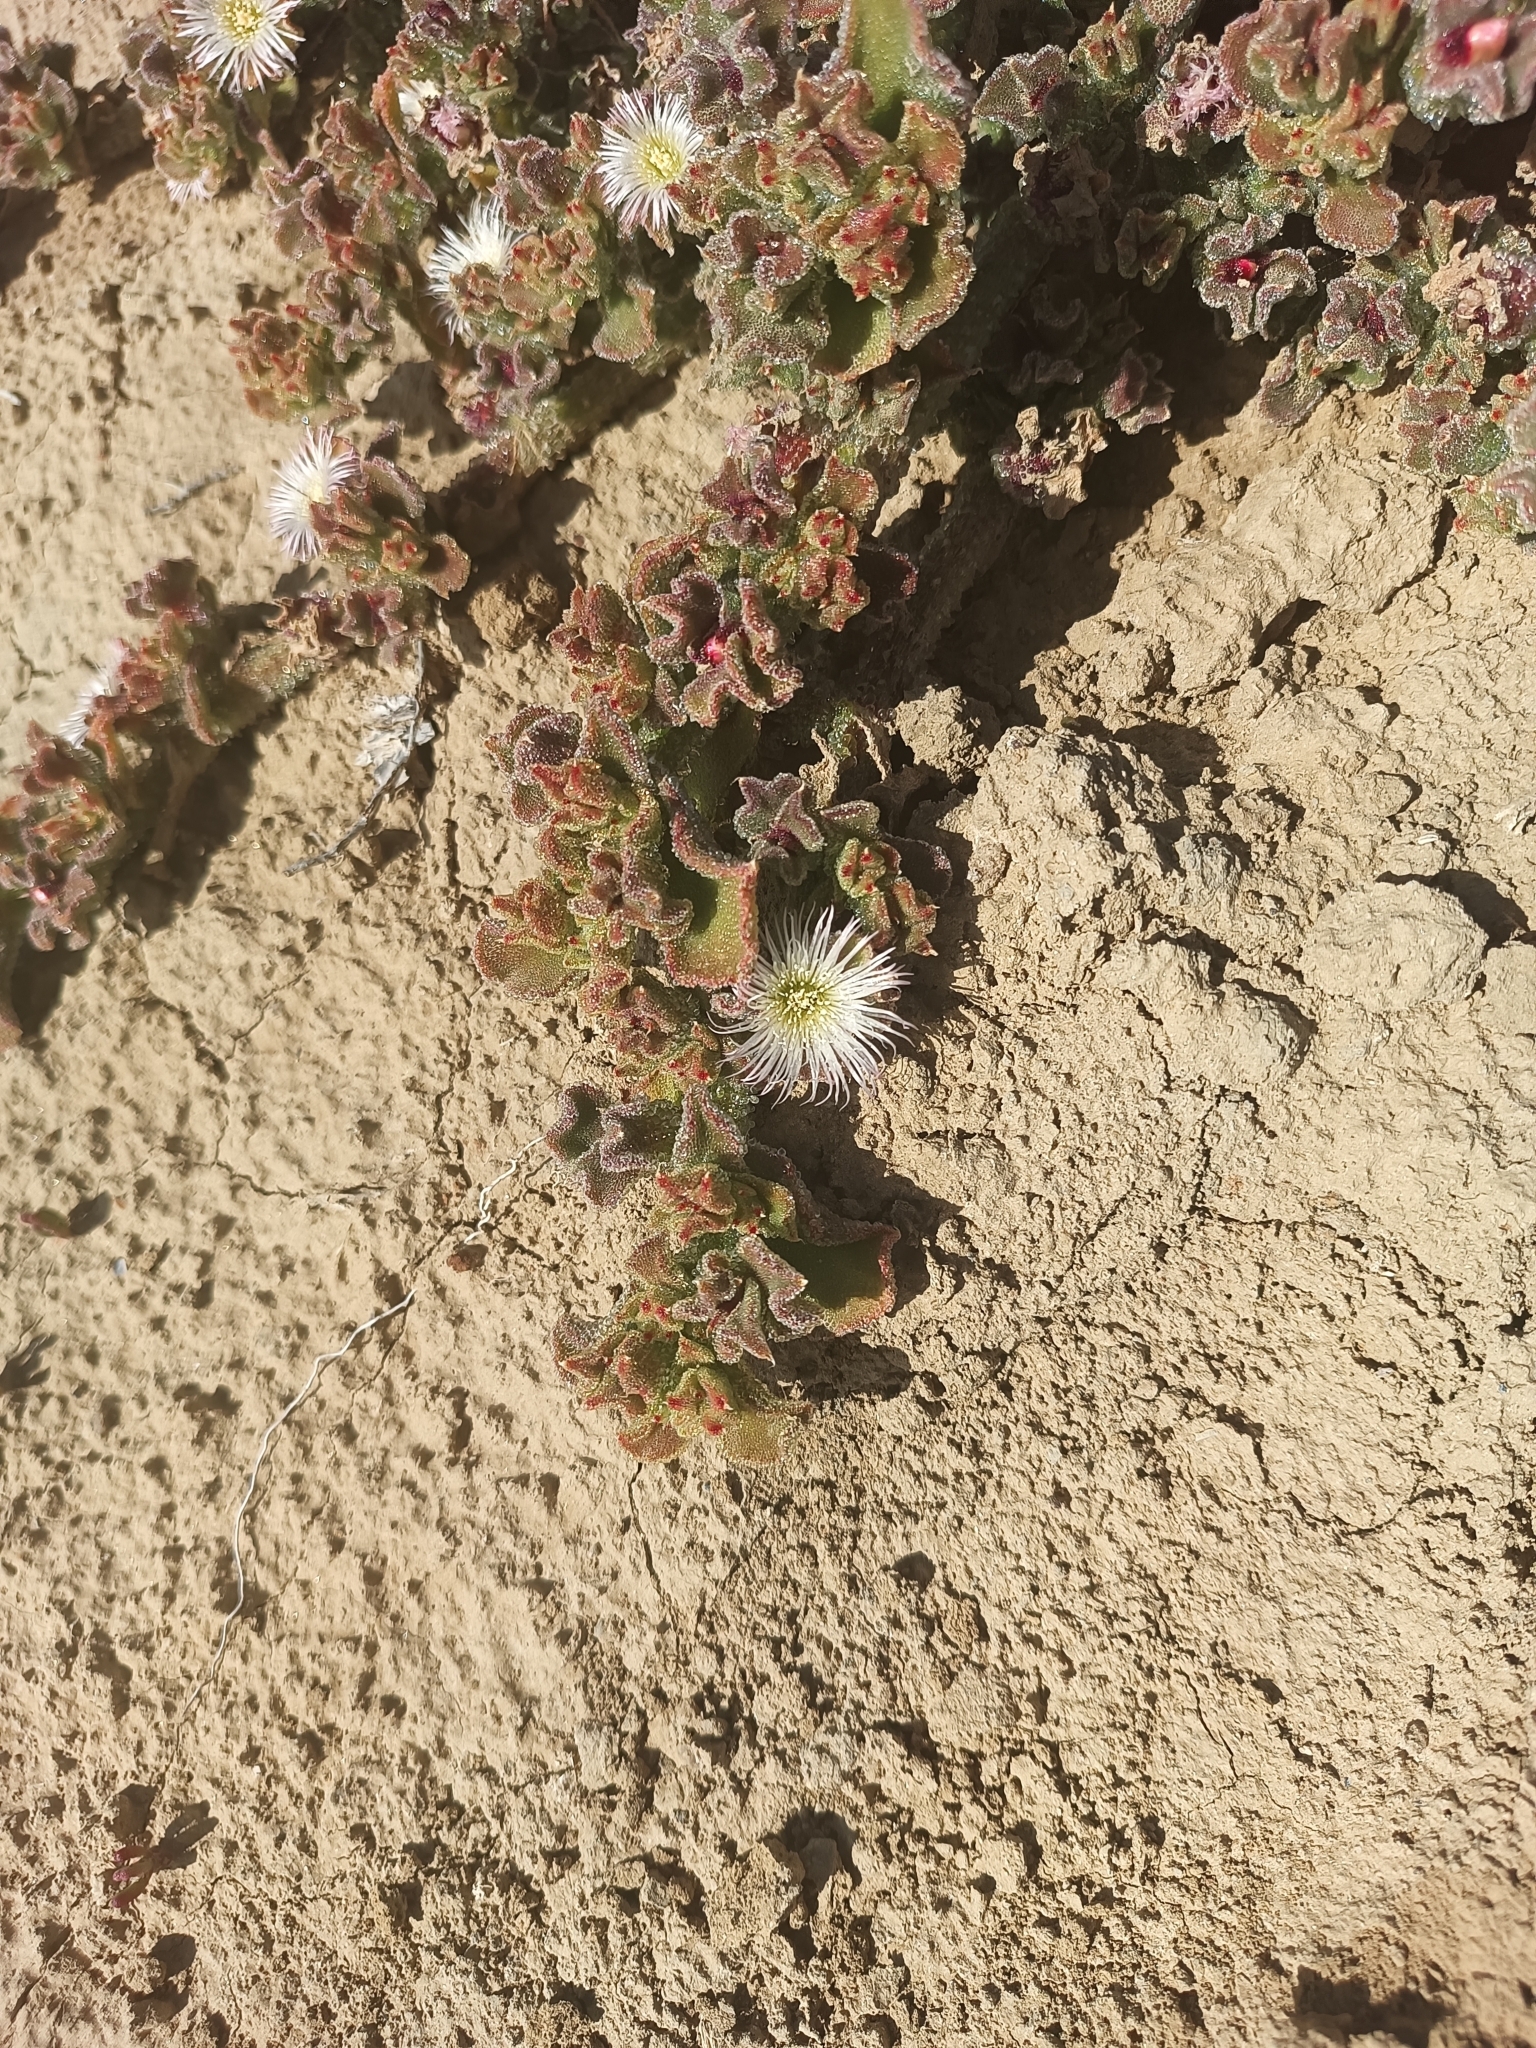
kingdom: Plantae
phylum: Tracheophyta
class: Magnoliopsida
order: Caryophyllales
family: Aizoaceae
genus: Mesembryanthemum
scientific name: Mesembryanthemum crystallinum
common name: Common iceplant
